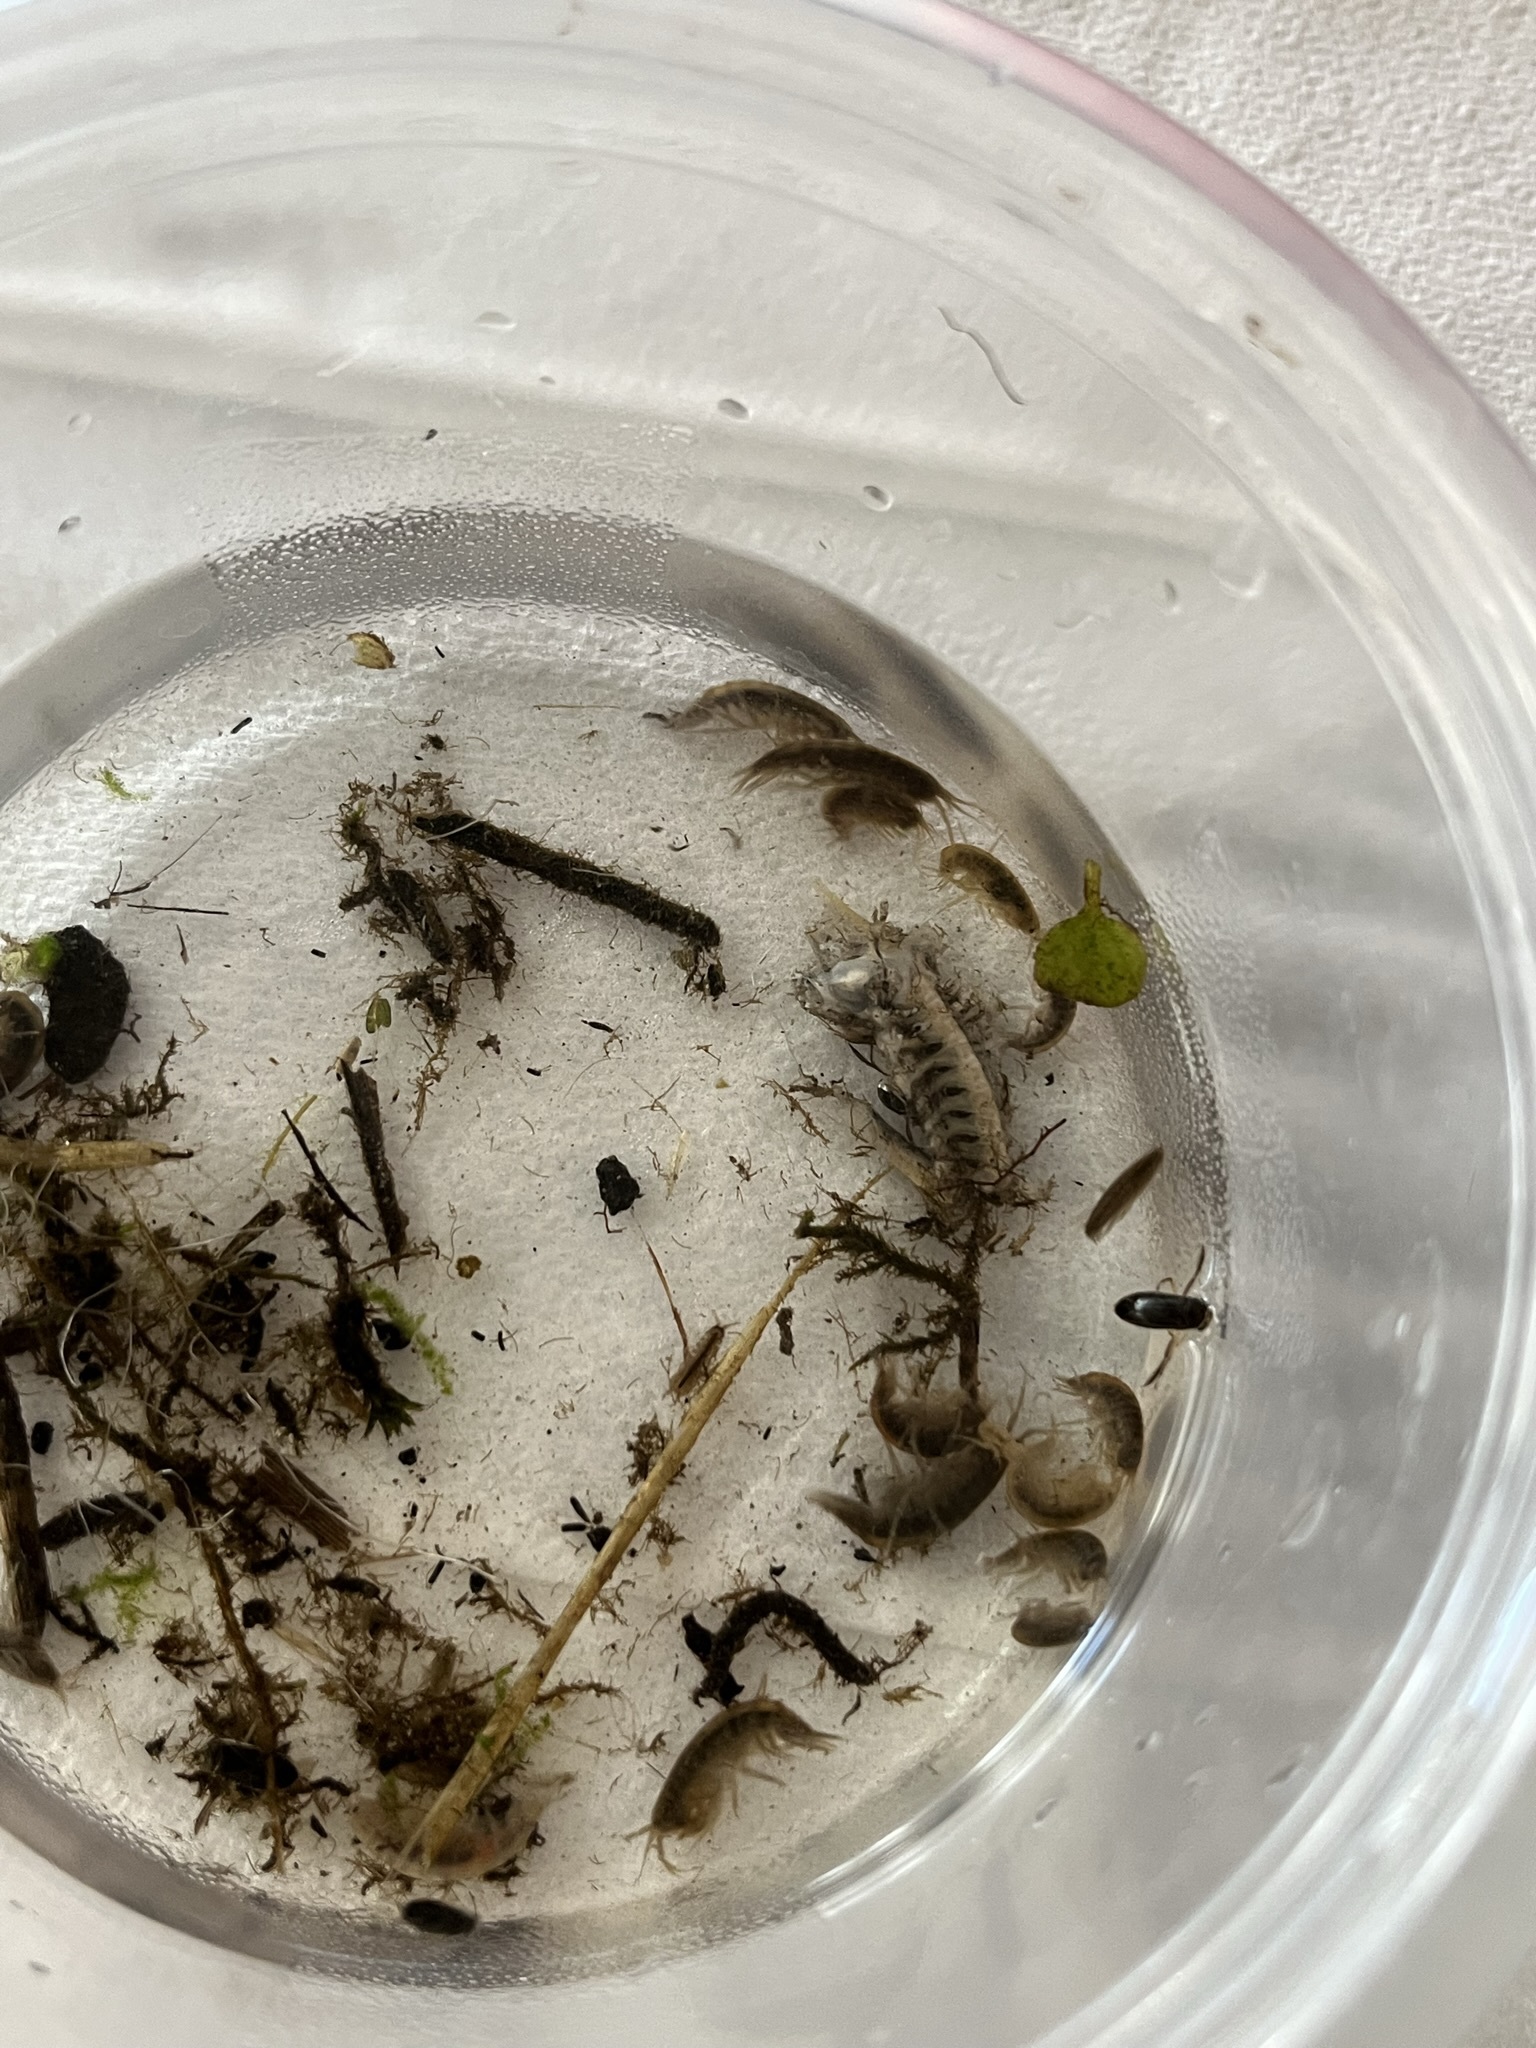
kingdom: Animalia
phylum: Arthropoda
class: Malacostraca
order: Isopoda
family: Asellidae
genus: Caecidotea
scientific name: Caecidotea
